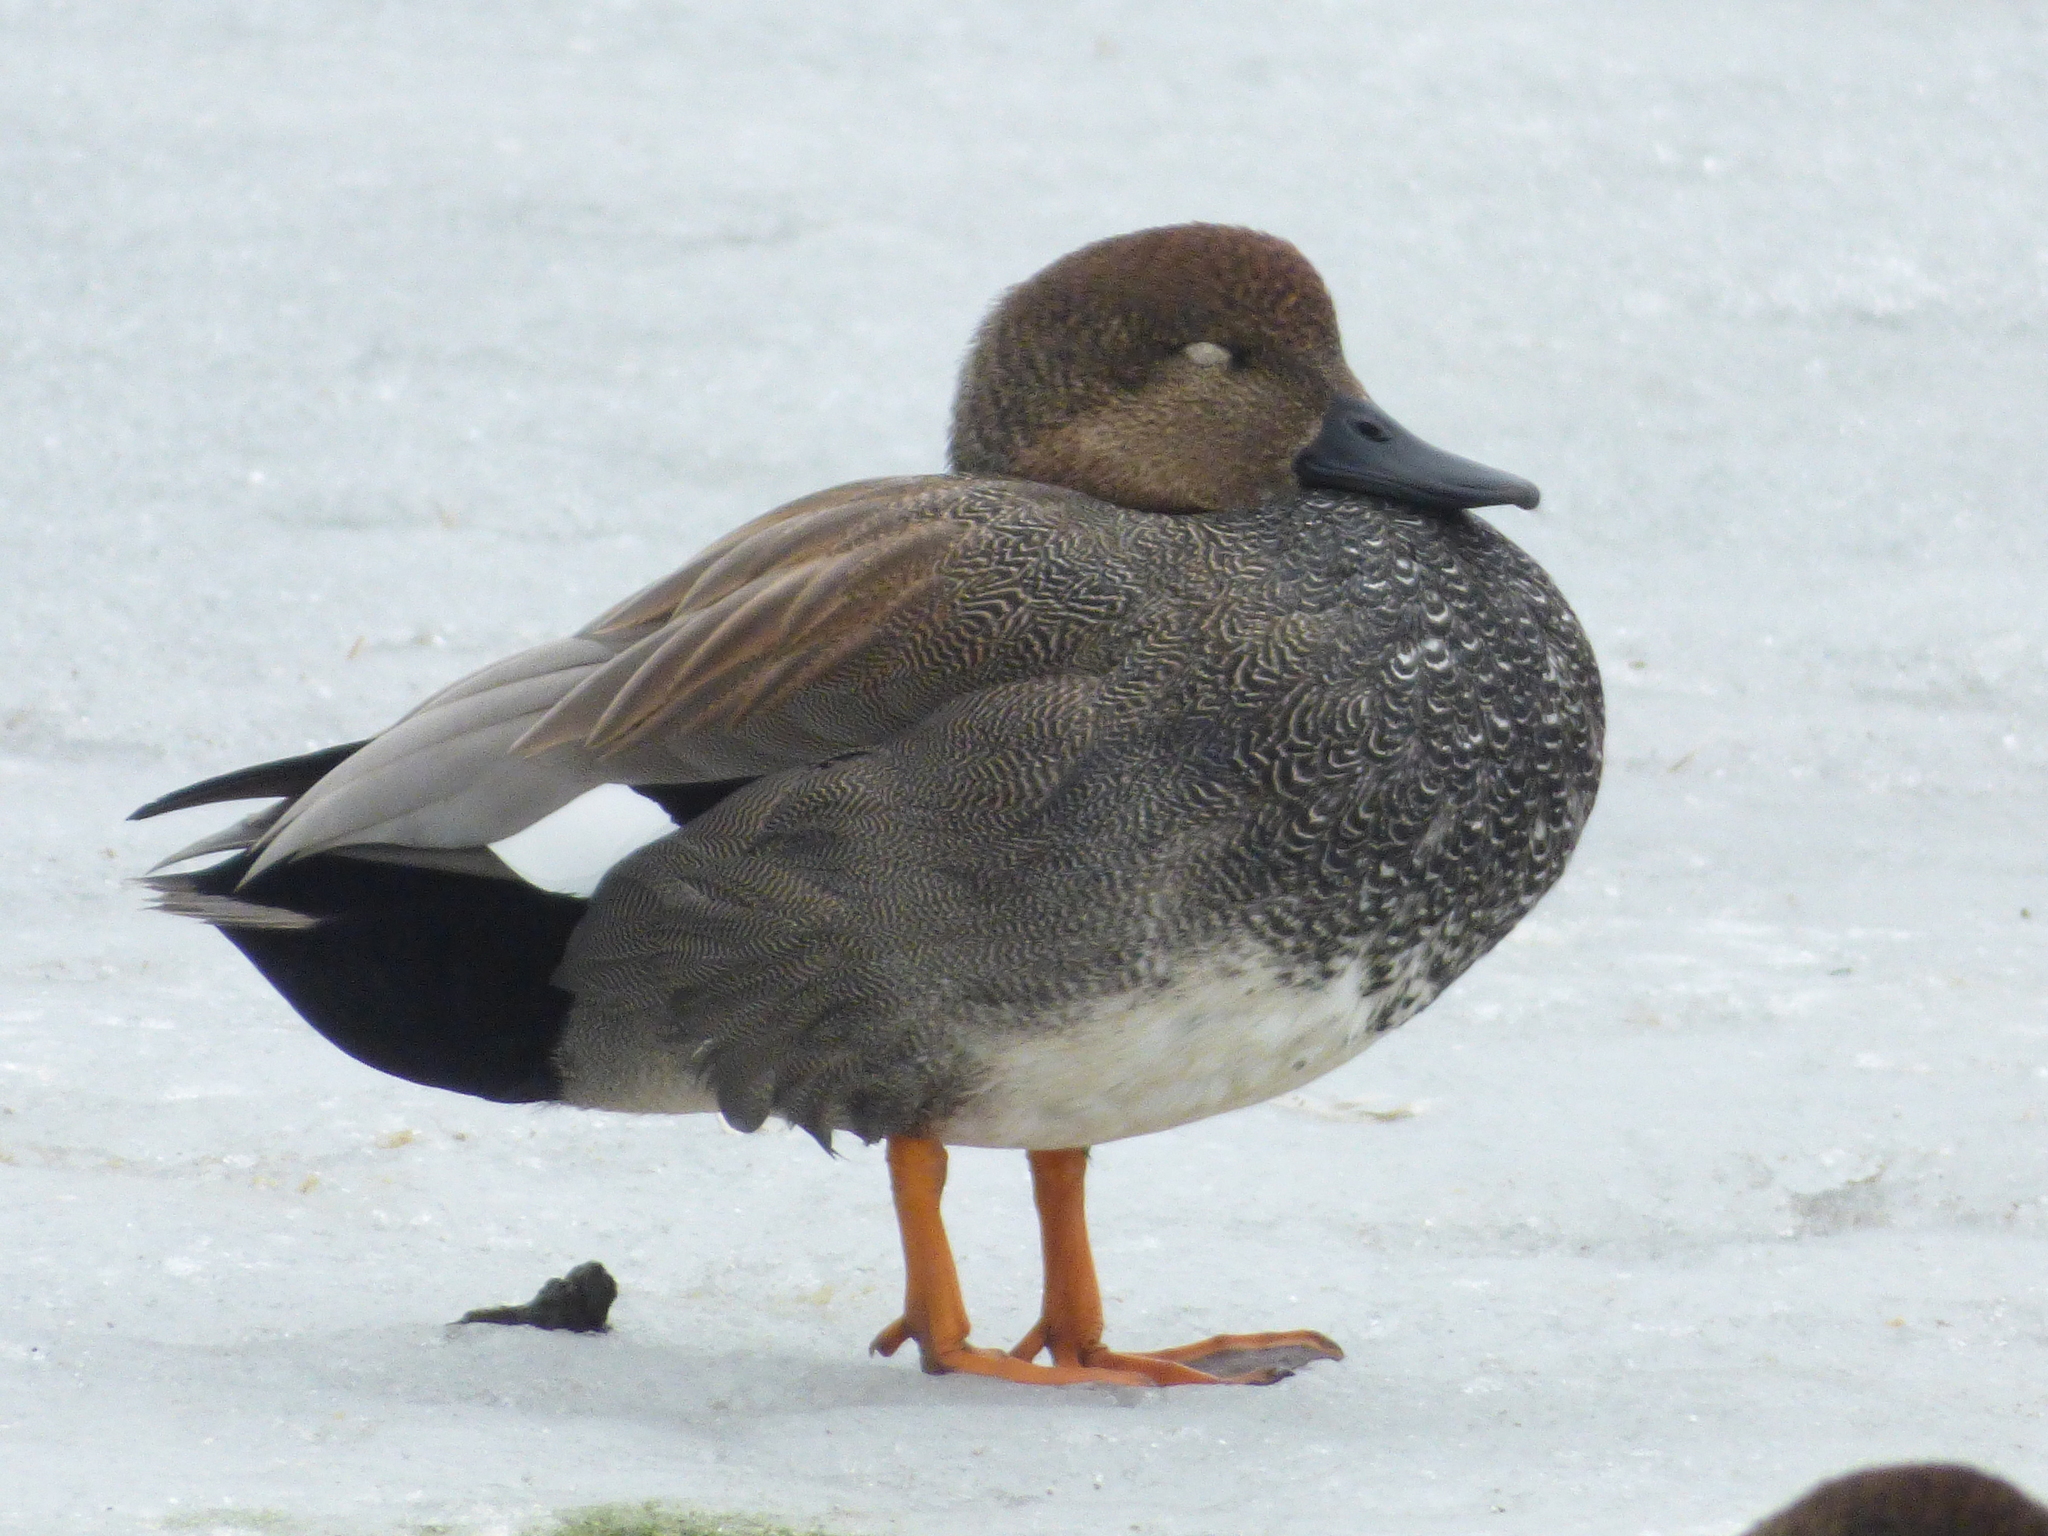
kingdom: Animalia
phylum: Chordata
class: Aves
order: Anseriformes
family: Anatidae
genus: Mareca
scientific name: Mareca strepera
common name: Gadwall
